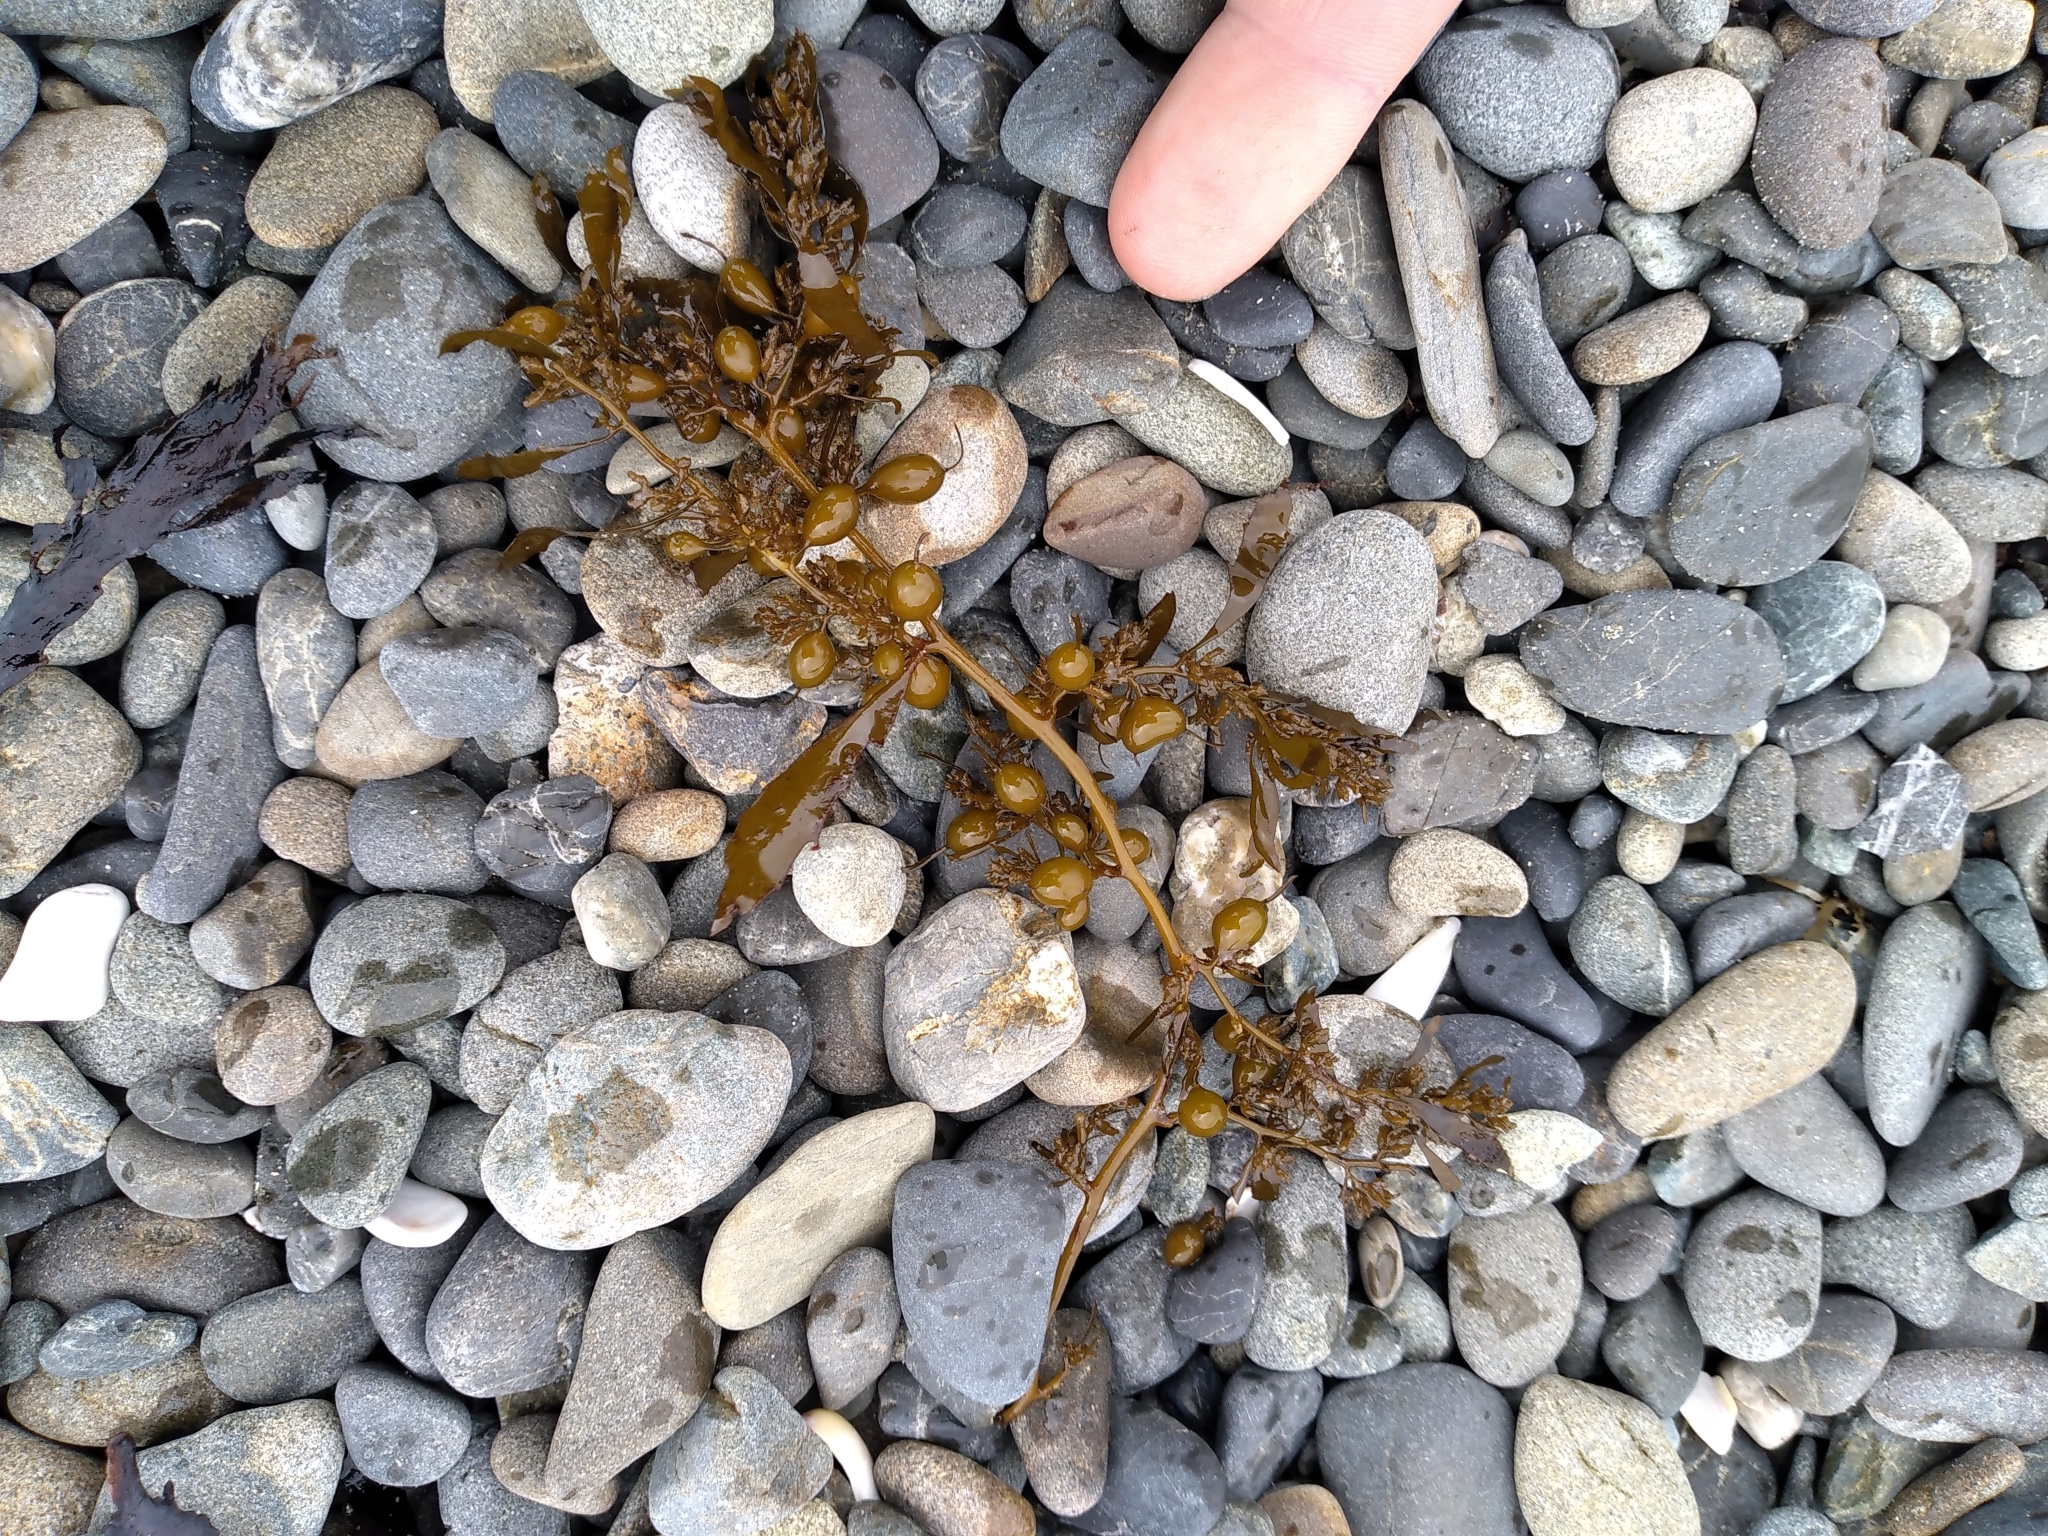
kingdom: Chromista
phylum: Ochrophyta
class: Phaeophyceae
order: Fucales
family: Sargassaceae
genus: Sargassum
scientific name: Sargassum sinclairii
